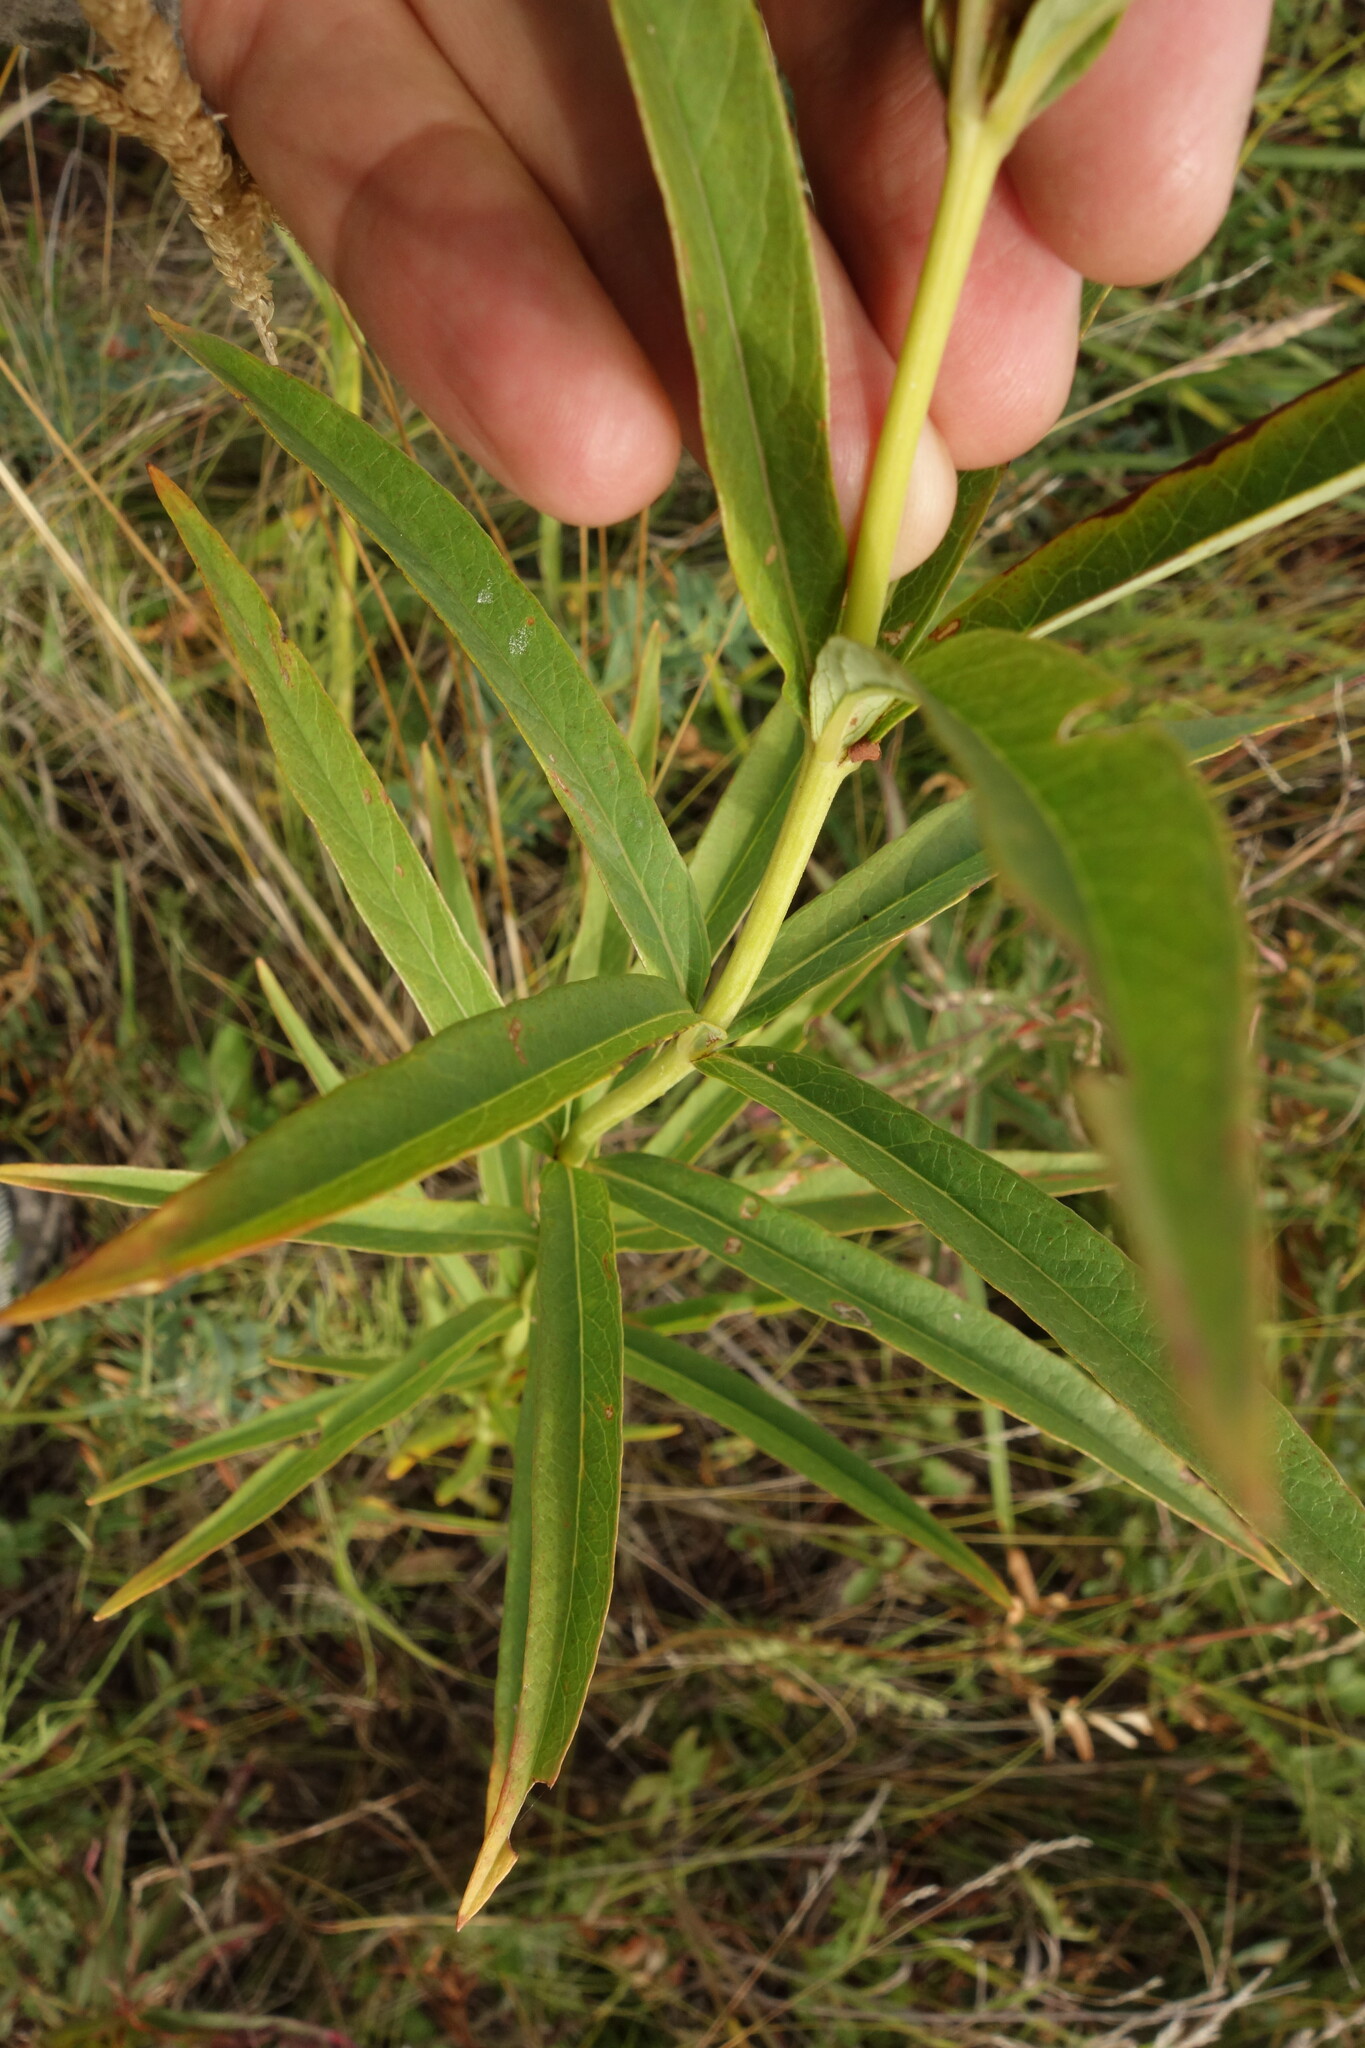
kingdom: Plantae
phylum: Tracheophyta
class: Magnoliopsida
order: Ericales
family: Primulaceae
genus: Lysimachia
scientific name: Lysimachia davurica
